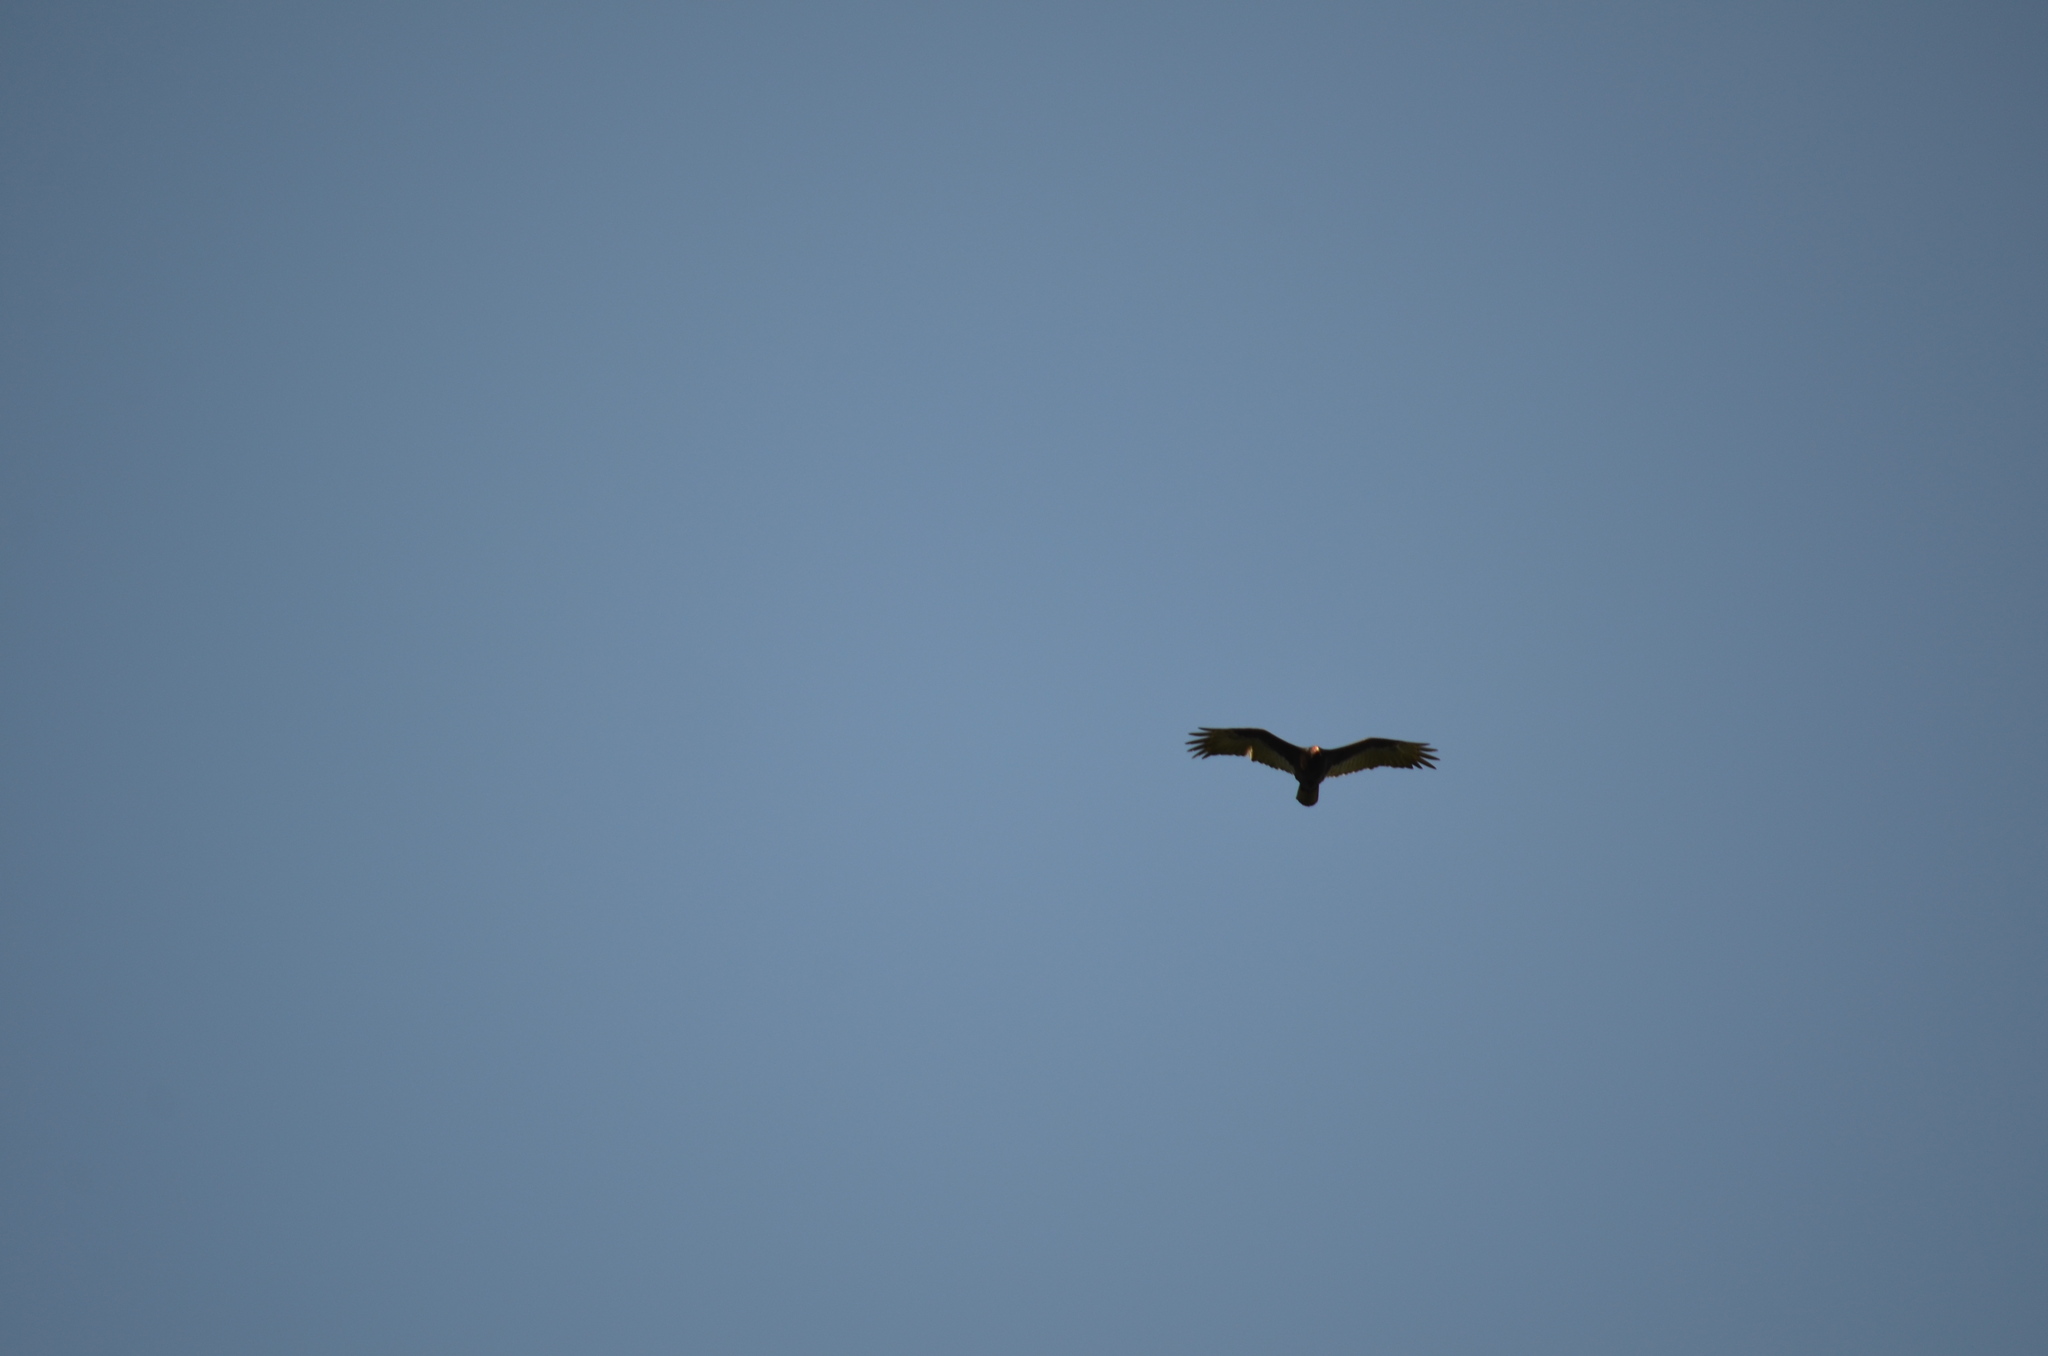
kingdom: Animalia
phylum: Chordata
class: Aves
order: Accipitriformes
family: Cathartidae
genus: Cathartes
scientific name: Cathartes aura
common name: Turkey vulture
